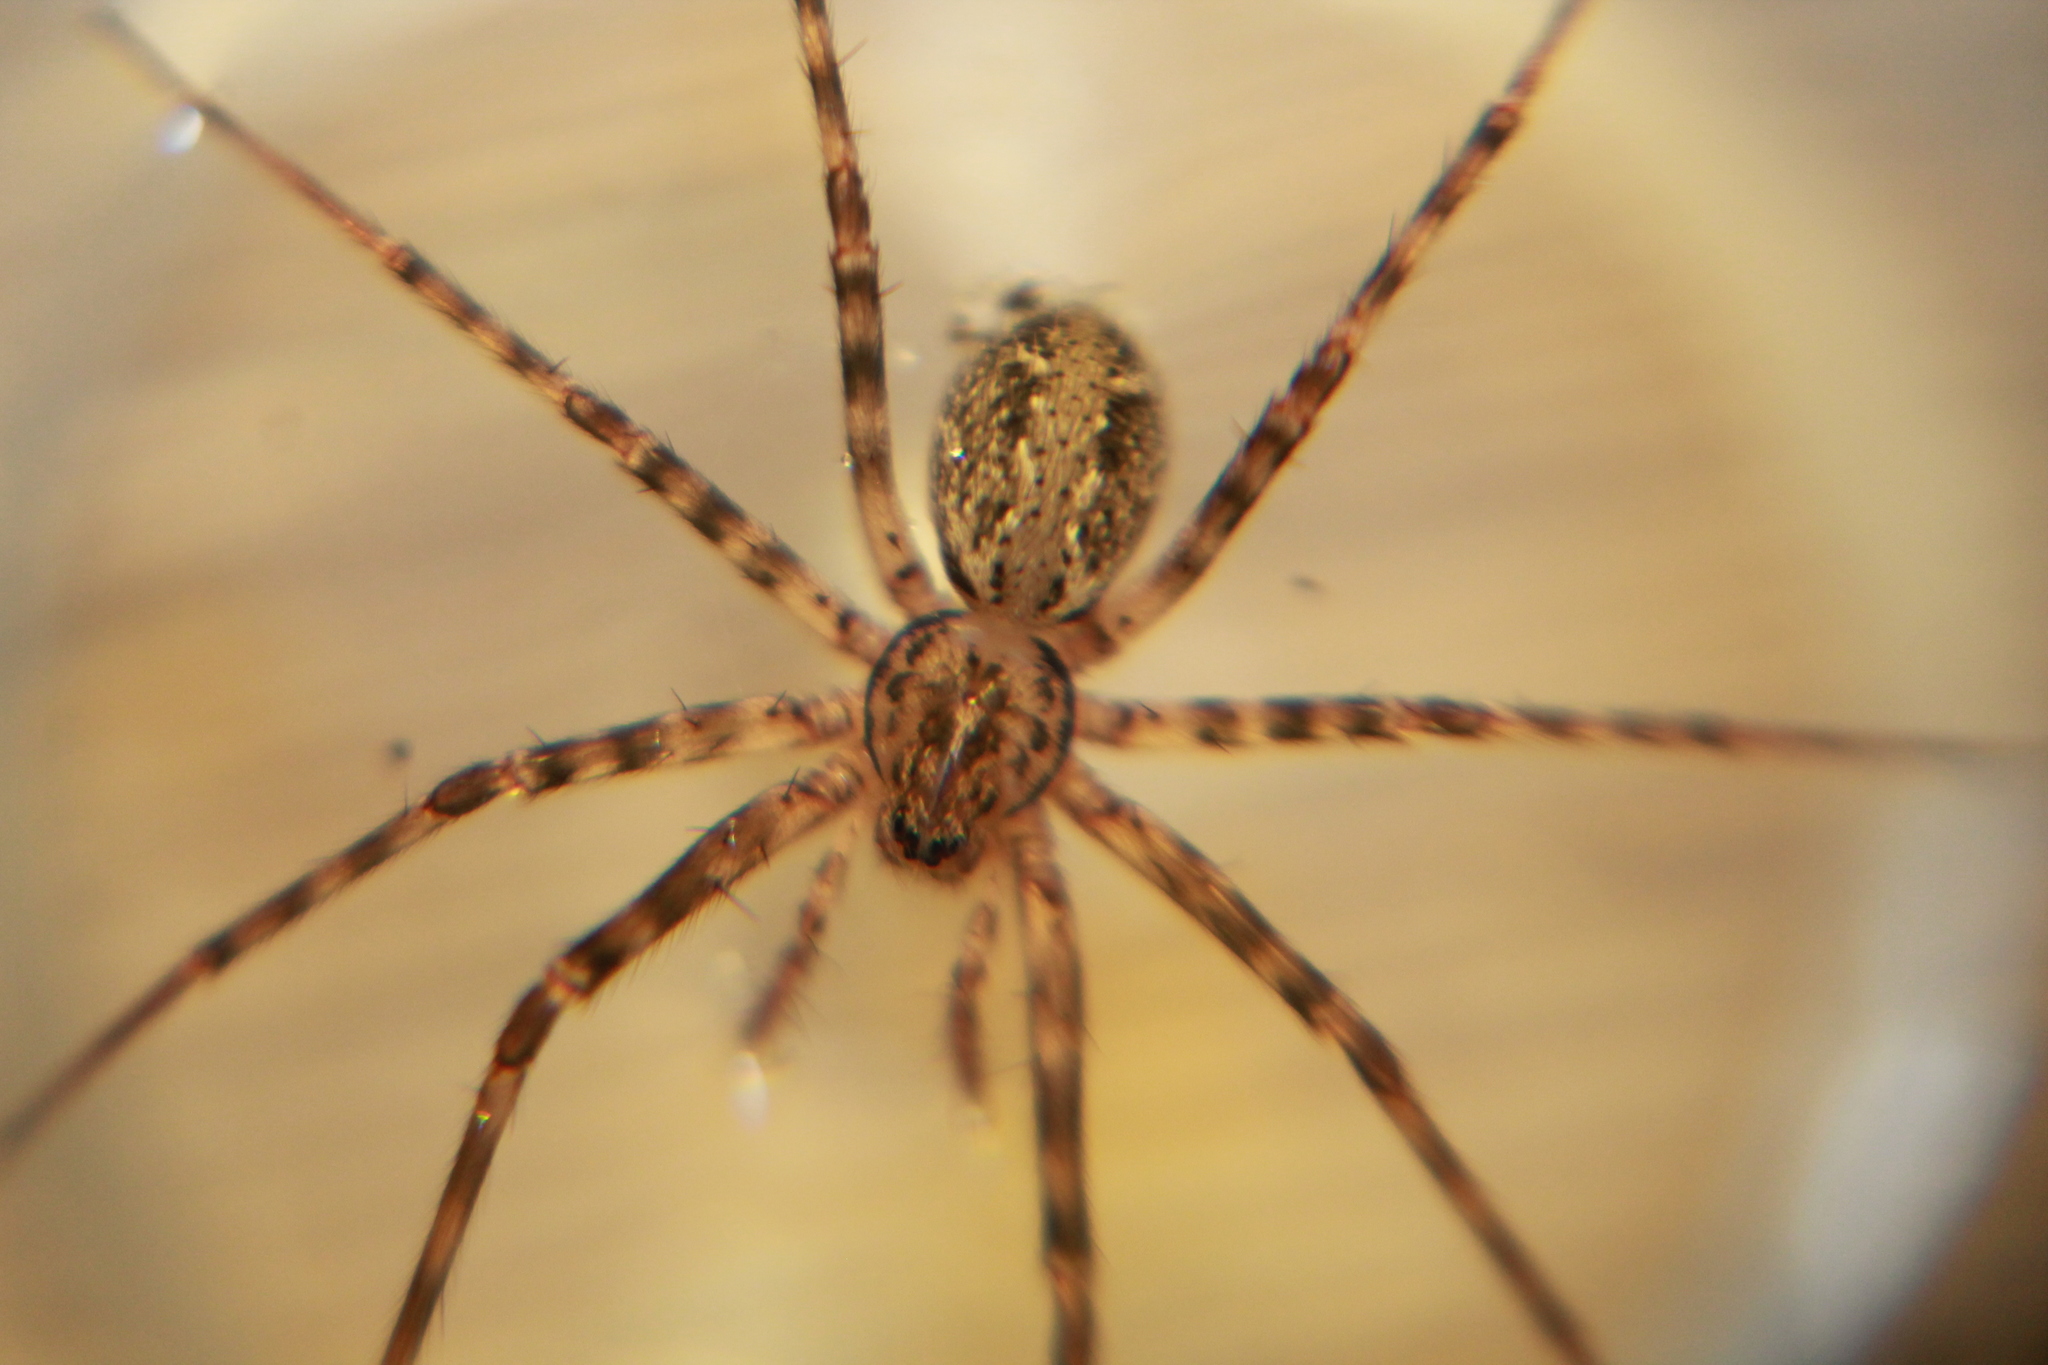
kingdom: Animalia
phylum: Arthropoda
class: Arachnida
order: Araneae
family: Stiphidiidae
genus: Stiphidion
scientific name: Stiphidion facetum
